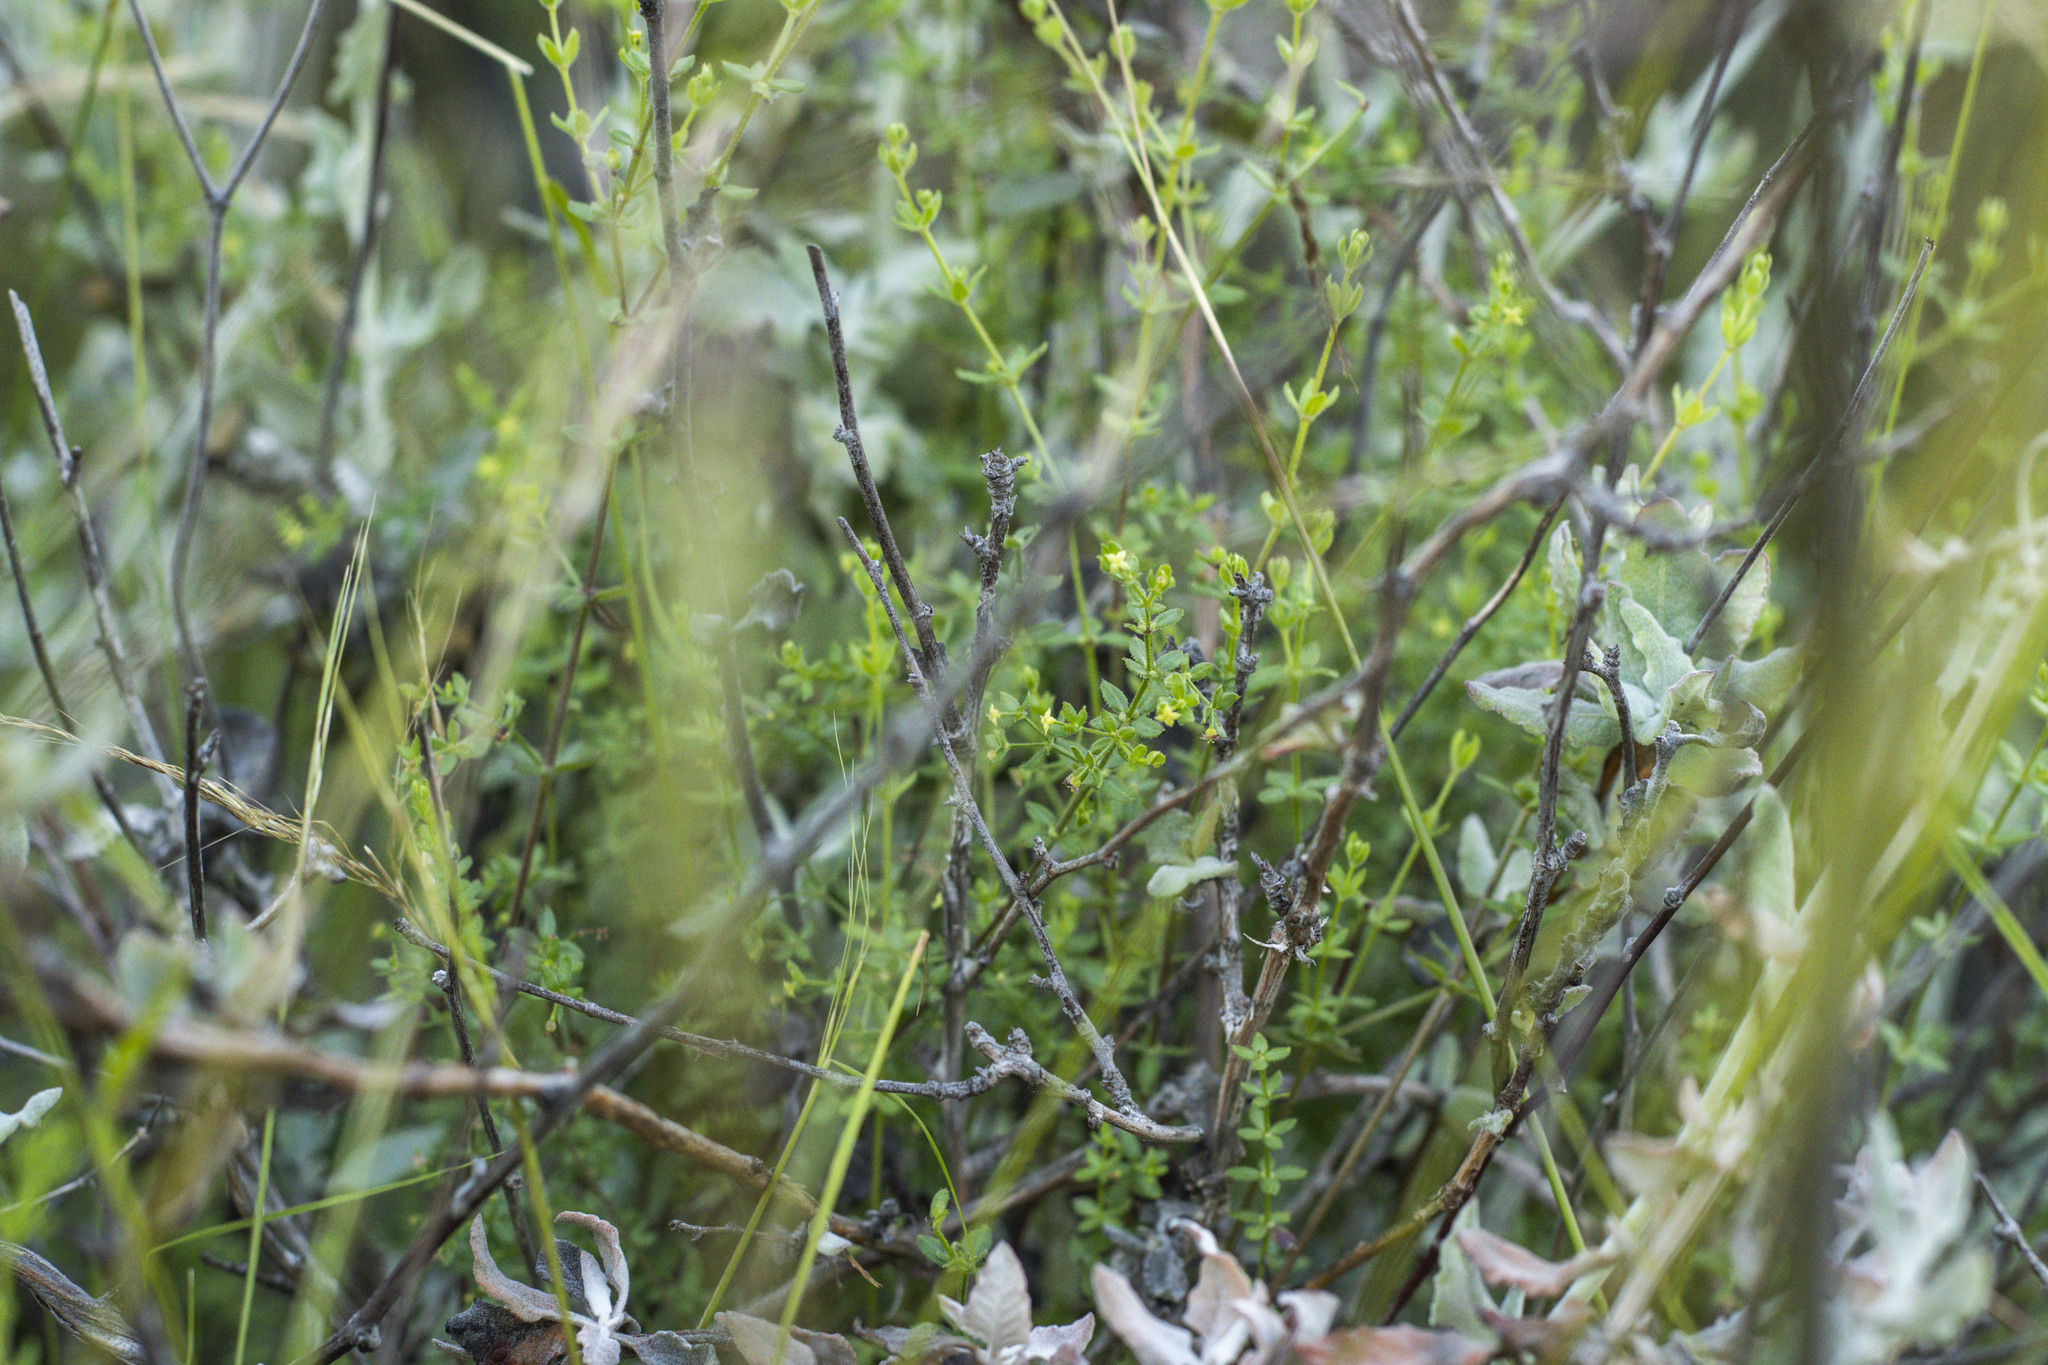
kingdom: Plantae
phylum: Tracheophyta
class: Magnoliopsida
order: Gentianales
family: Rubiaceae
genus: Galium
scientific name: Galium nuttallii
